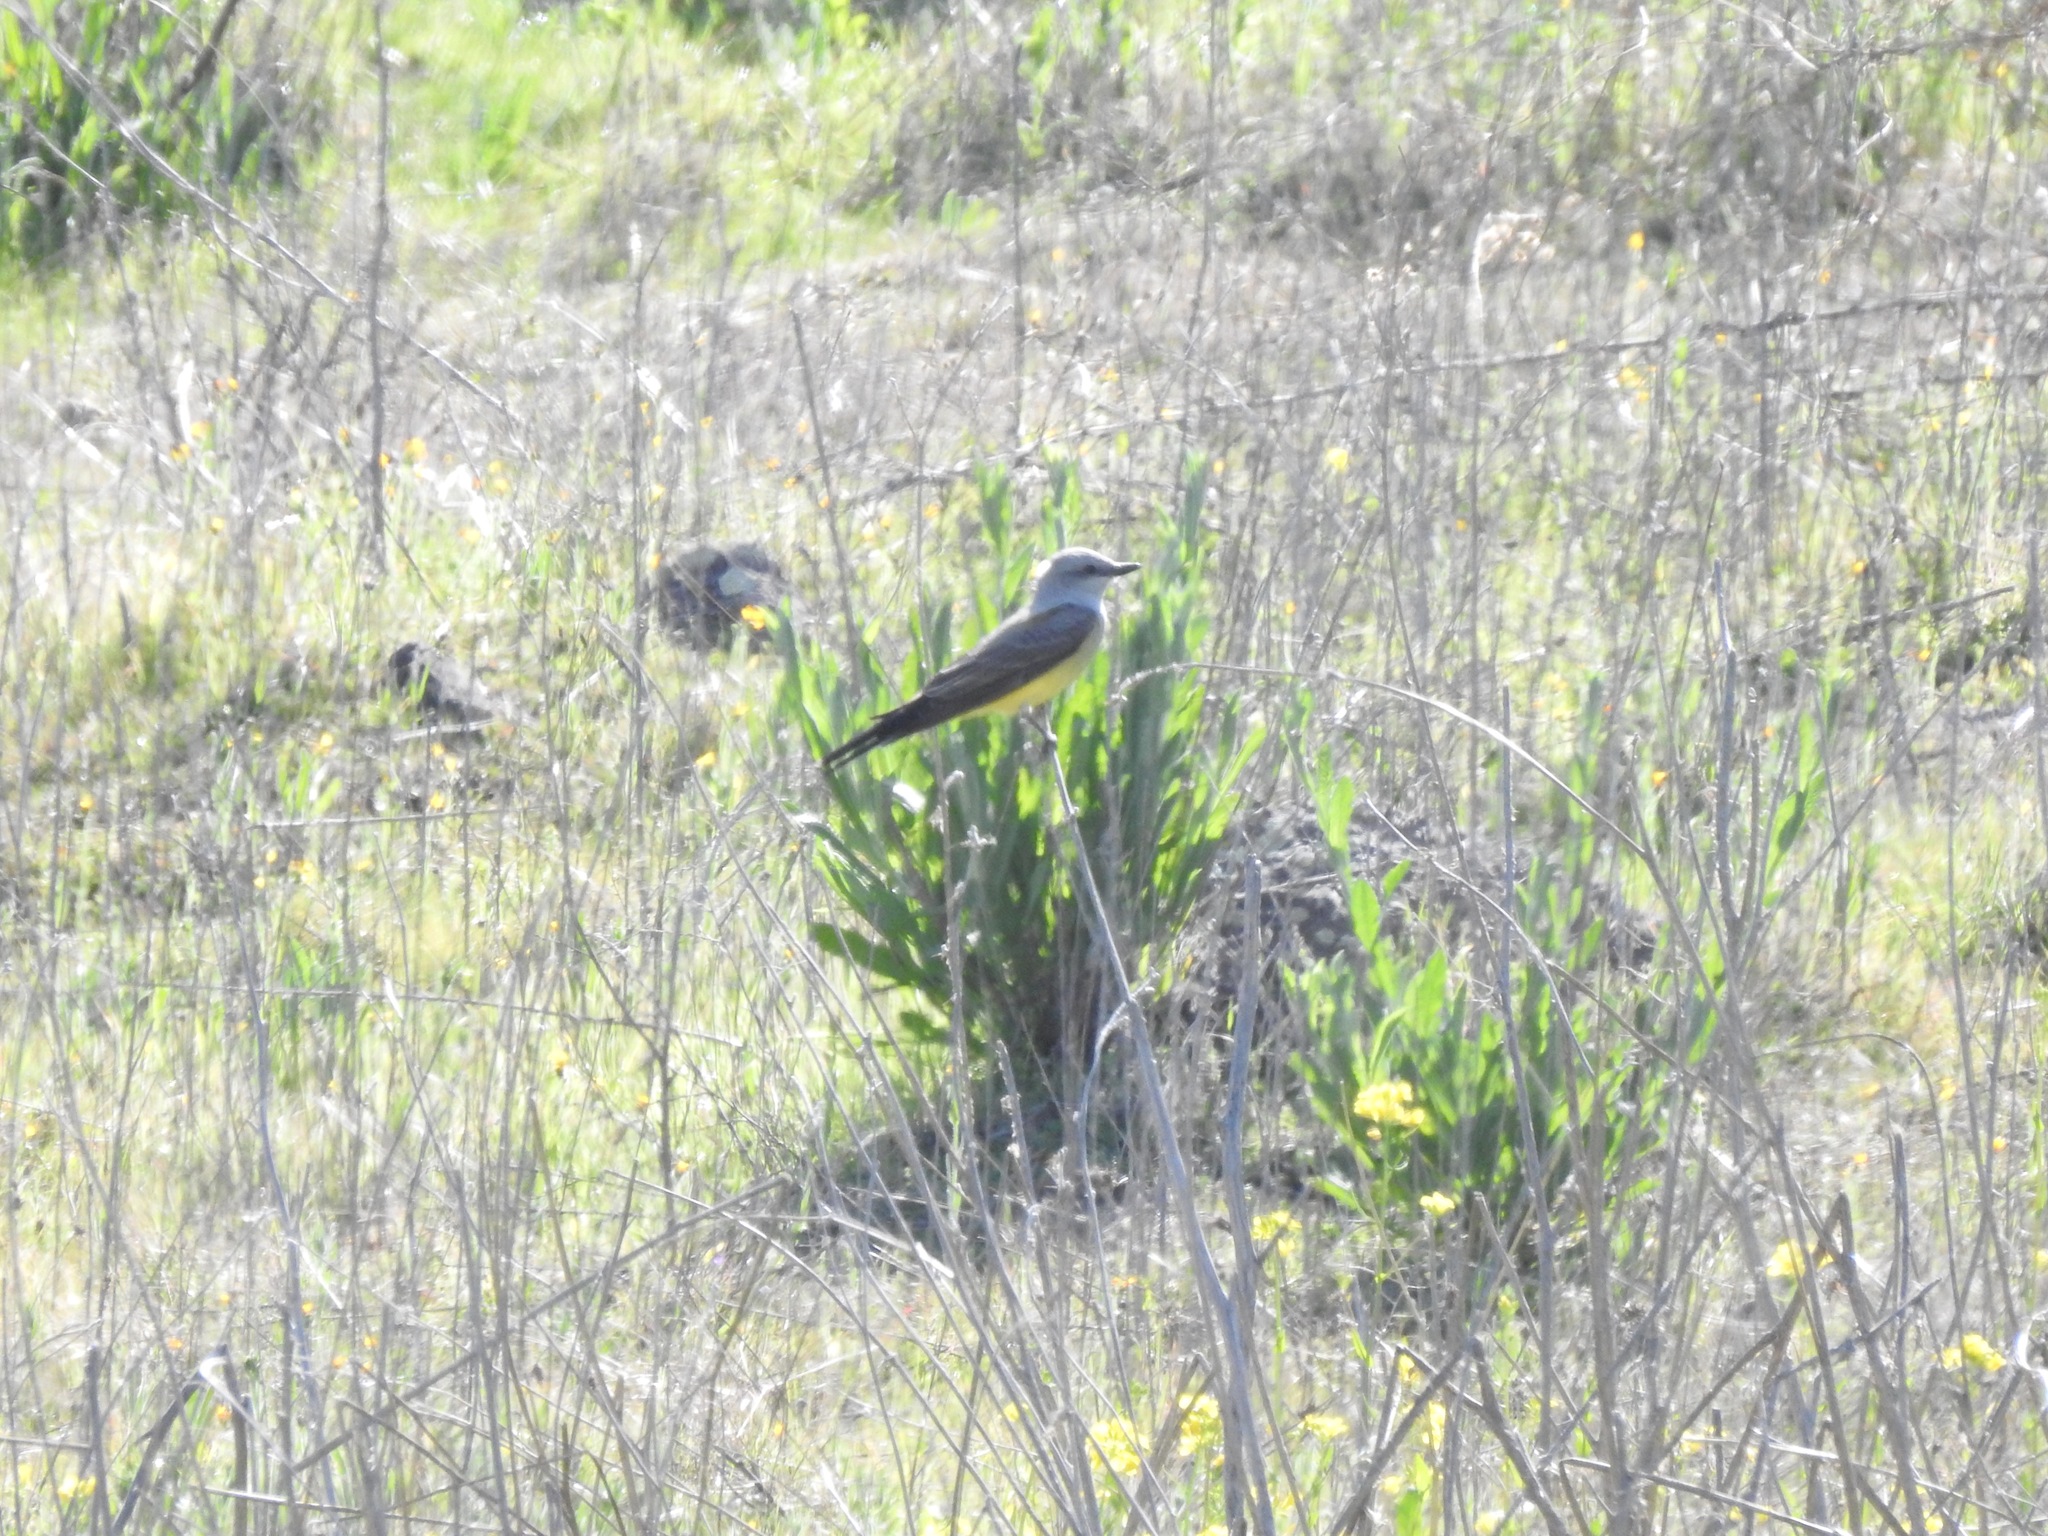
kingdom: Animalia
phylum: Chordata
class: Aves
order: Passeriformes
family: Tyrannidae
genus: Tyrannus
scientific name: Tyrannus verticalis
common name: Western kingbird
